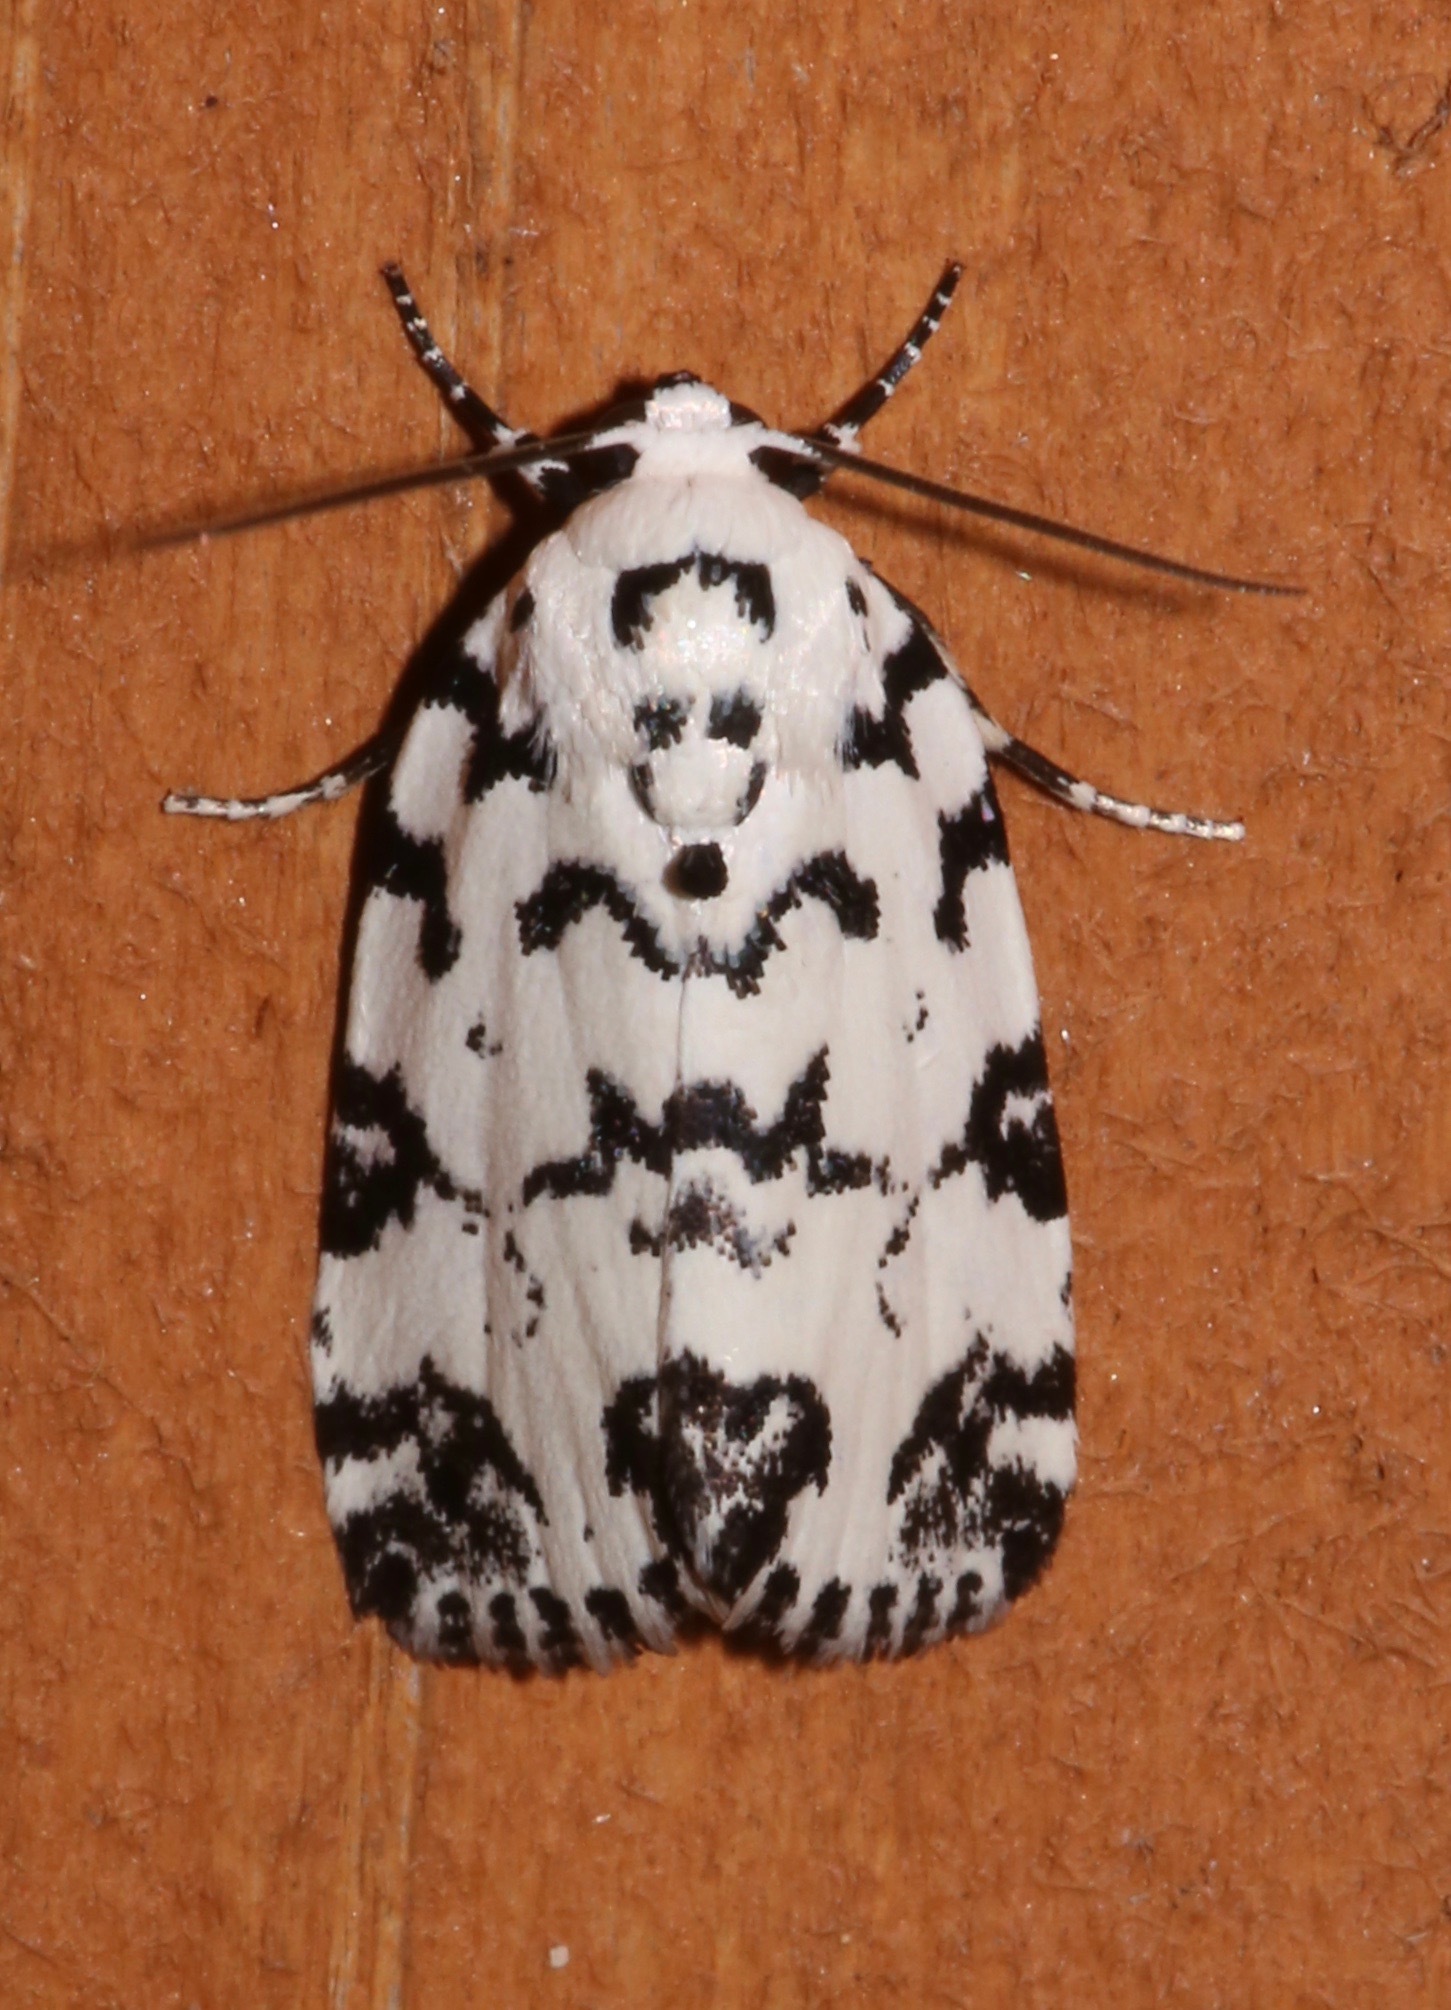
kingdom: Animalia
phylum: Arthropoda
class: Insecta
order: Lepidoptera
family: Noctuidae
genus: Polygrammate
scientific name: Polygrammate hebraeicum
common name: Hebrew moth
